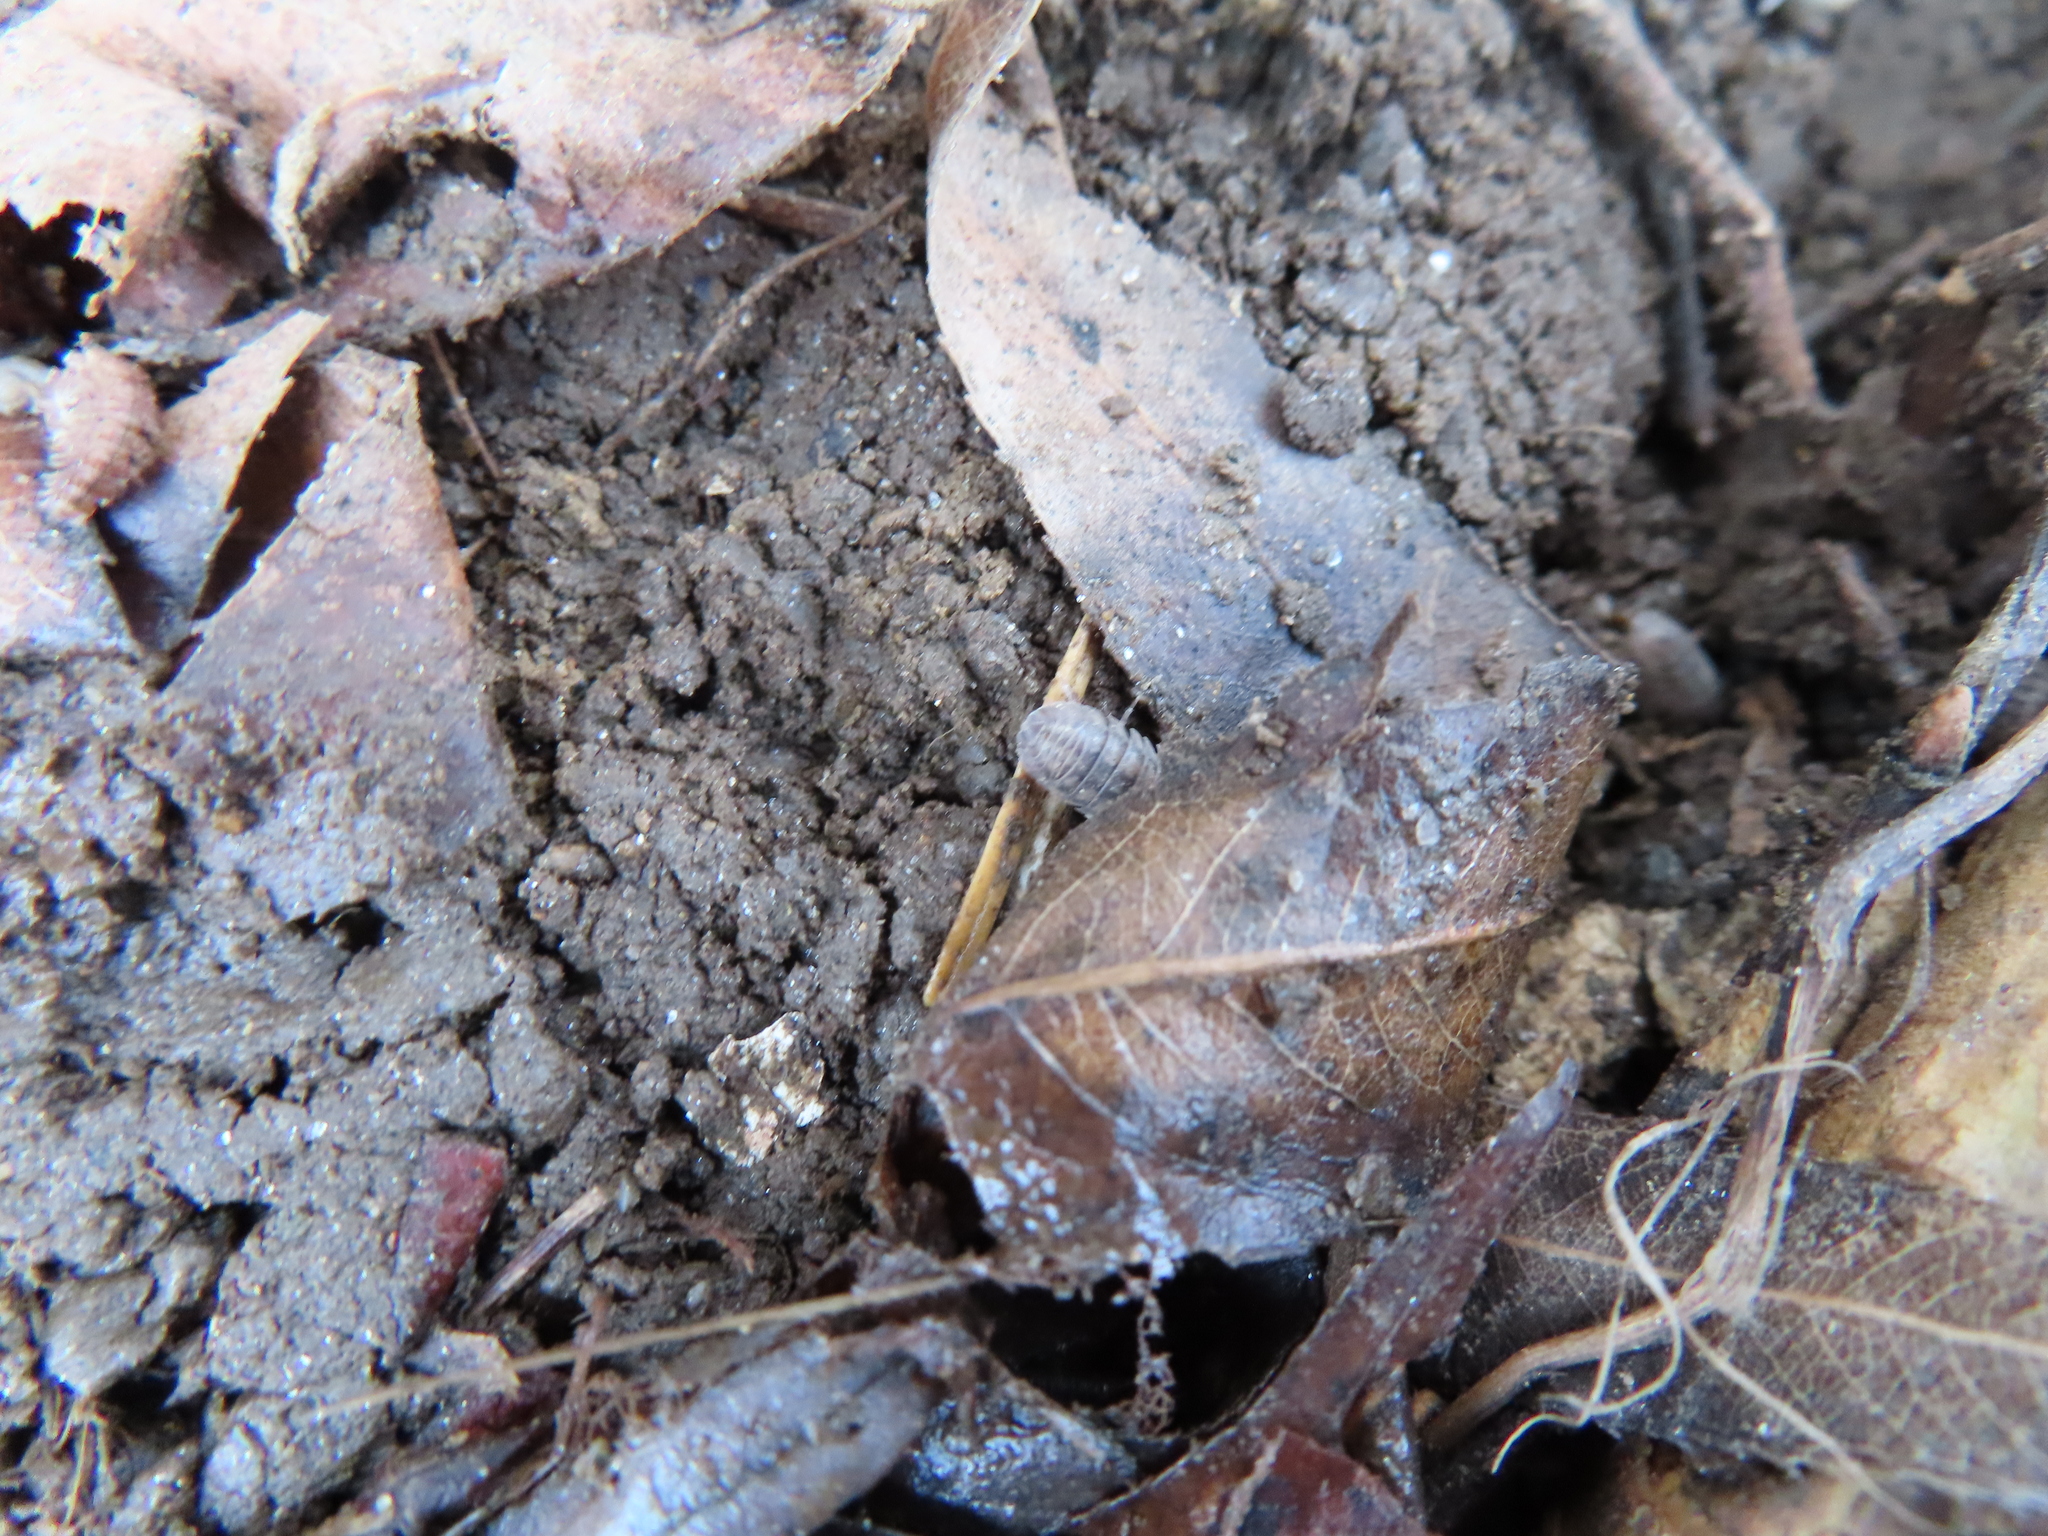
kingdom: Animalia
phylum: Arthropoda
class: Malacostraca
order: Isopoda
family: Armadillidiidae
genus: Armadillidium
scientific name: Armadillidium nasatum
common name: Isopod
